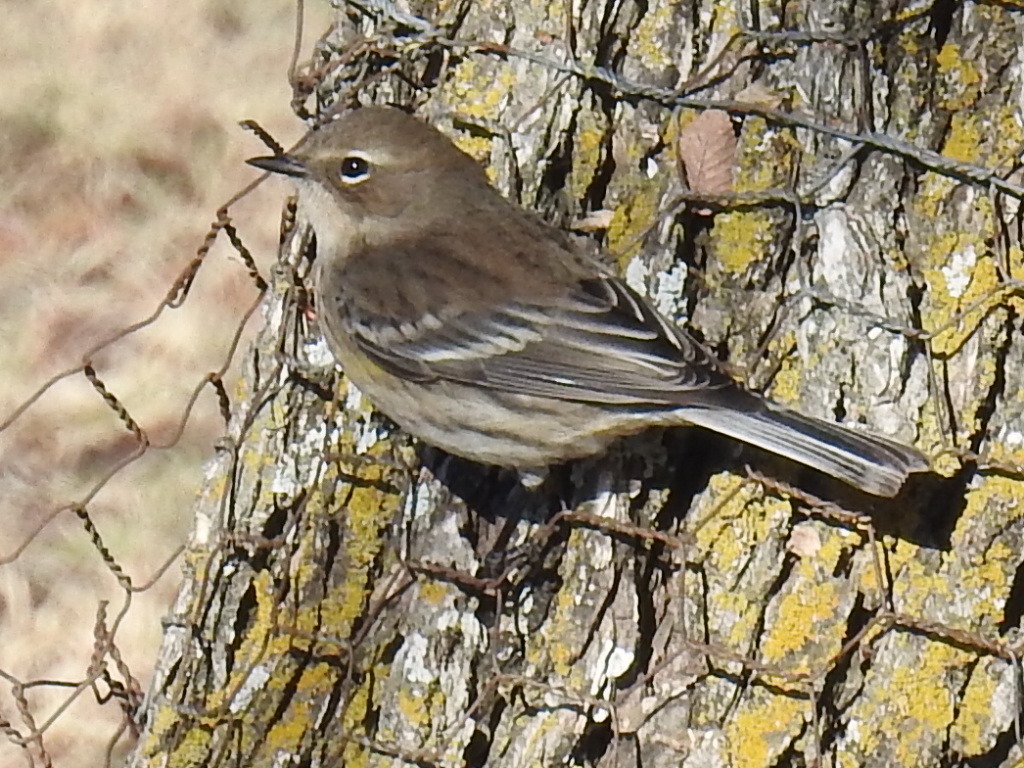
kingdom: Animalia
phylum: Chordata
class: Aves
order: Passeriformes
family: Parulidae
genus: Setophaga
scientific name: Setophaga coronata
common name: Myrtle warbler
